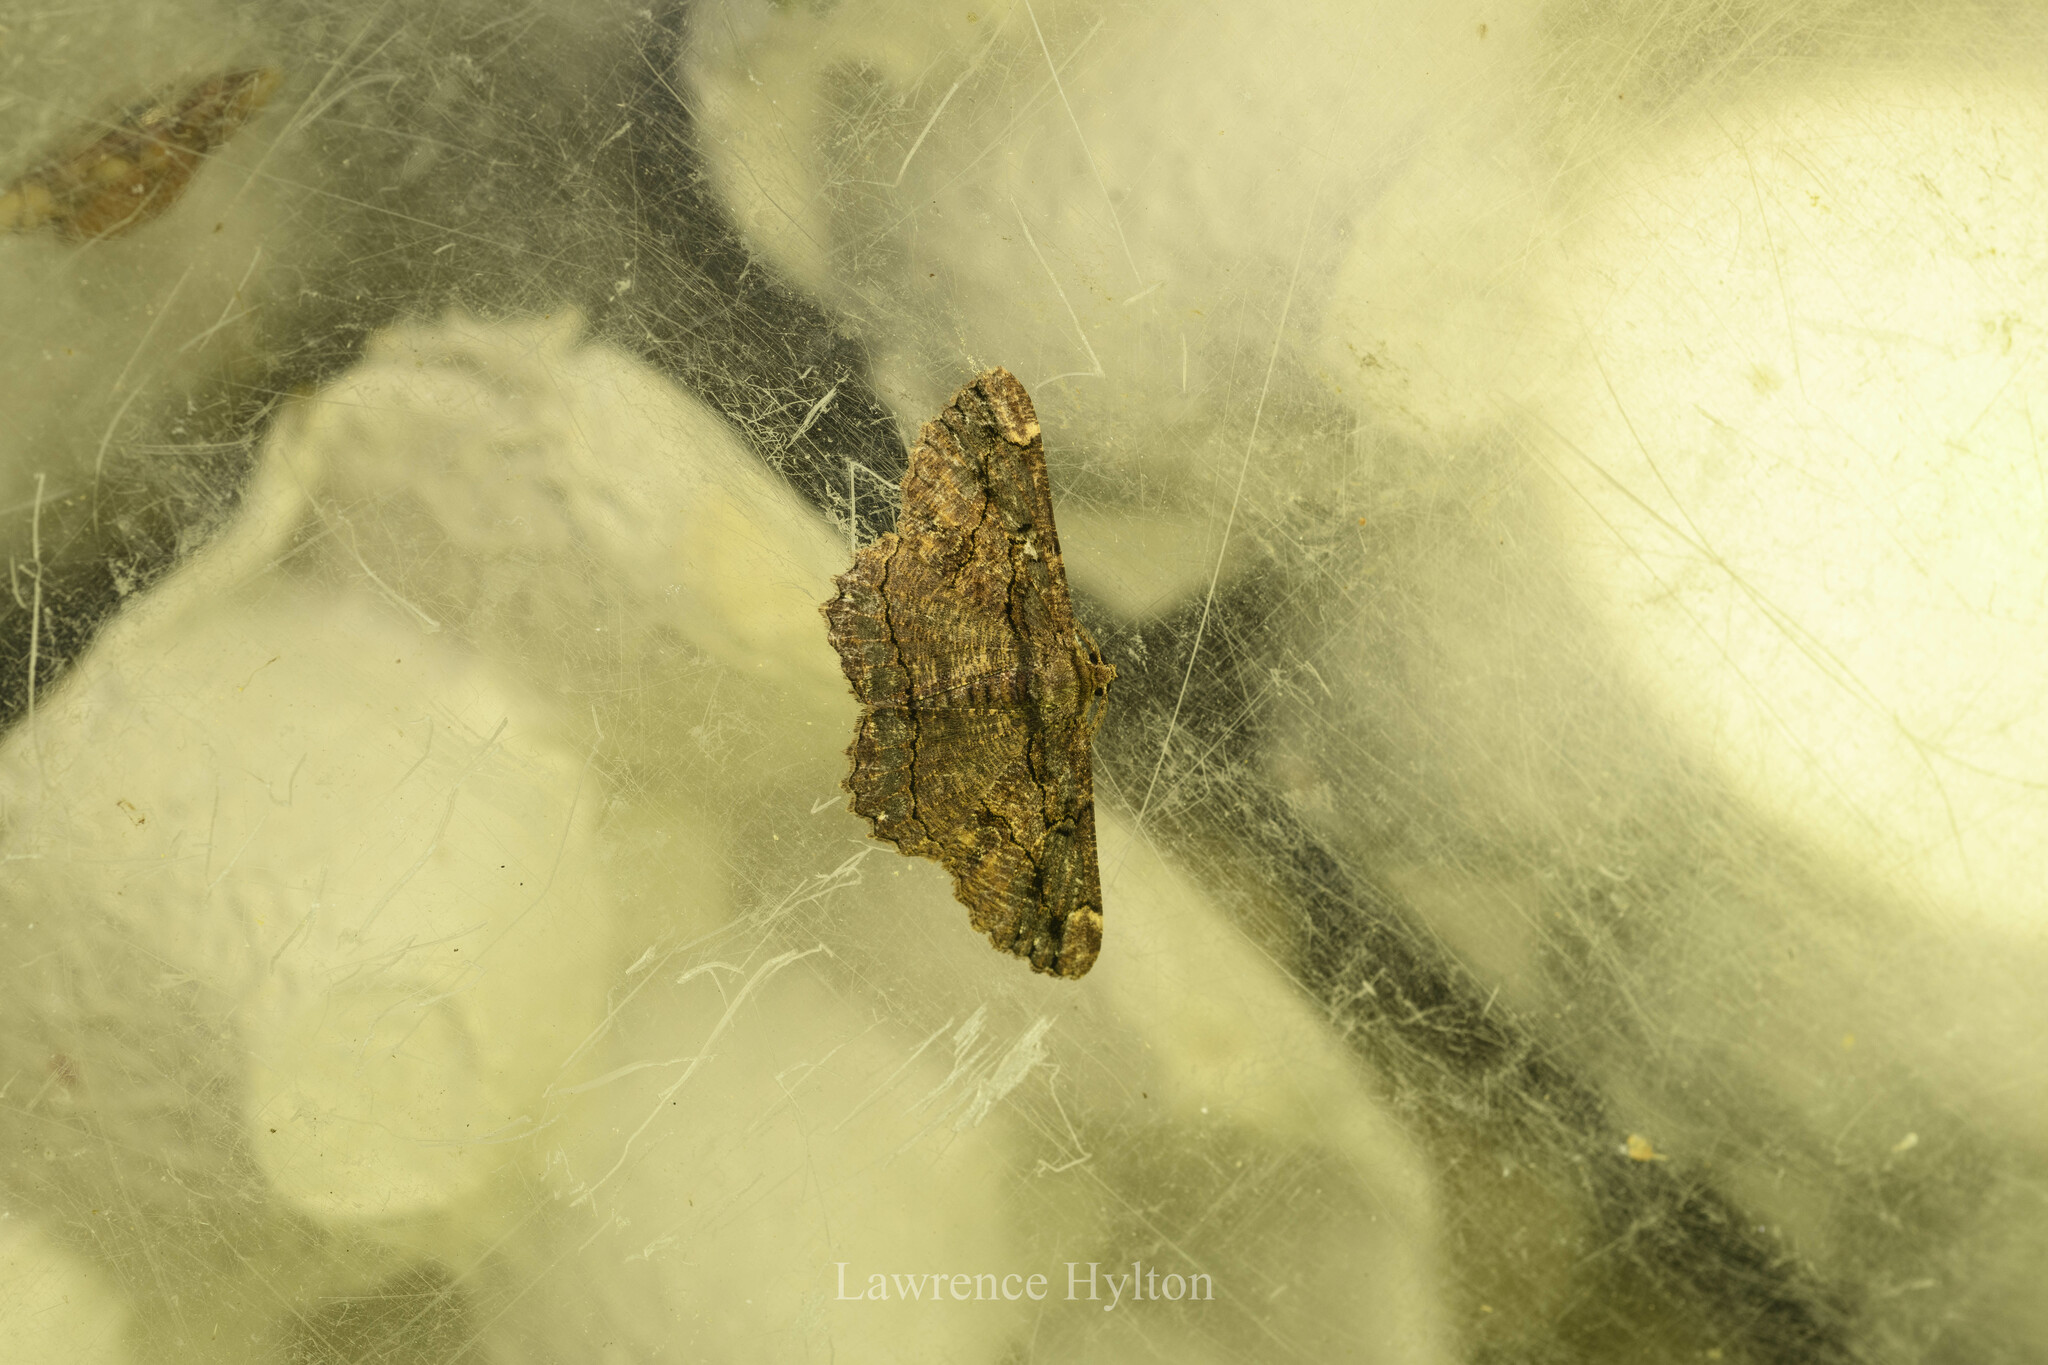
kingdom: Animalia
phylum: Arthropoda
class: Insecta
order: Lepidoptera
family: Geometridae
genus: Dasyboarmia
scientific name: Dasyboarmia subpilosa
